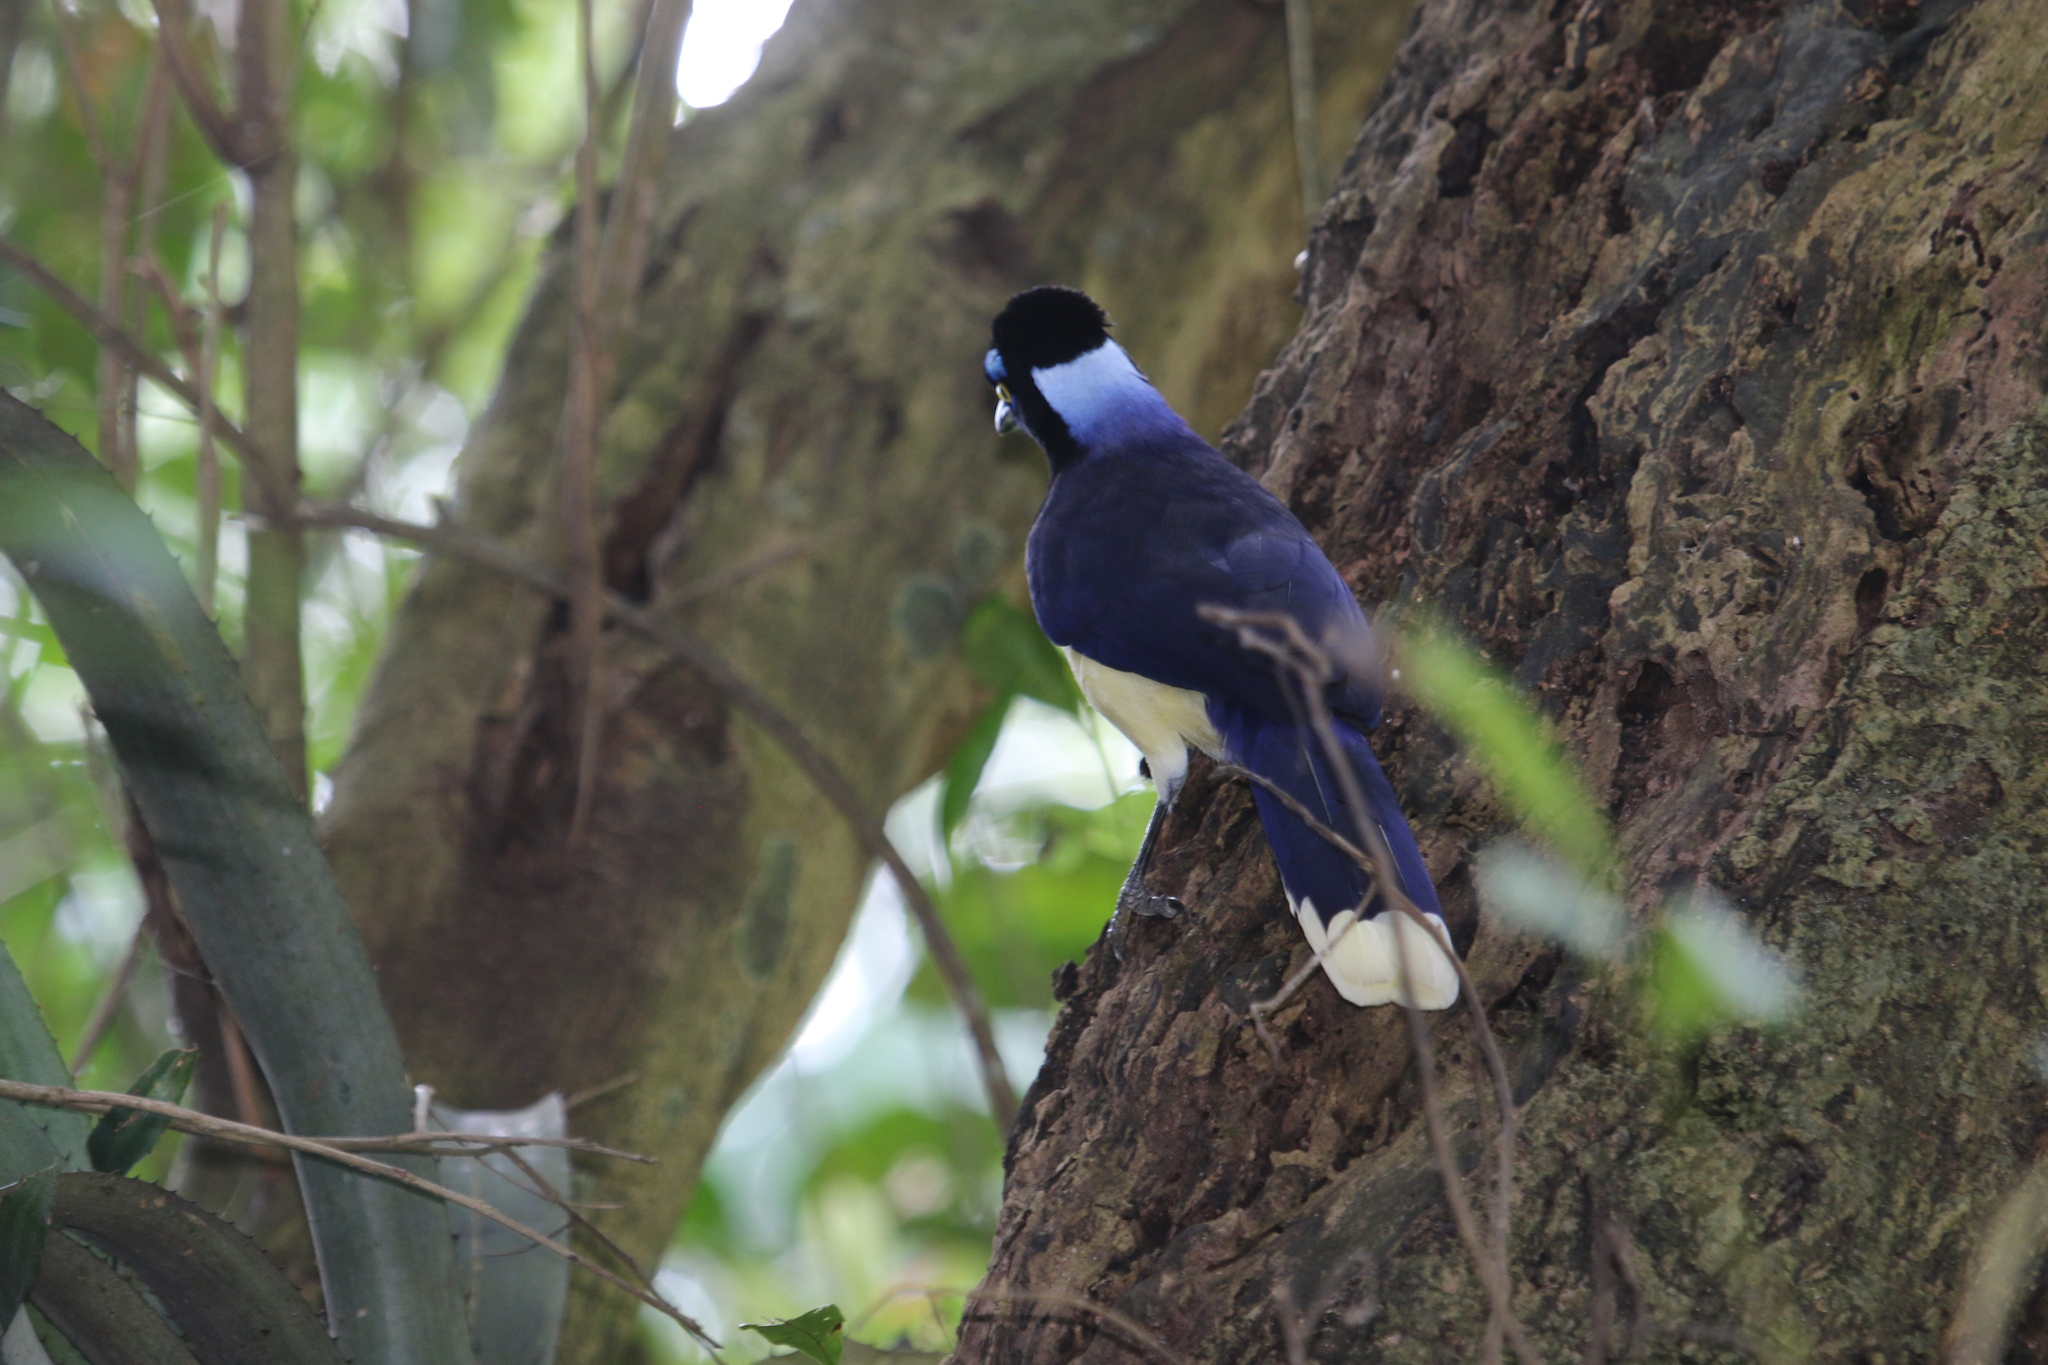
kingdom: Animalia
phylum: Chordata
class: Aves
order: Passeriformes
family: Corvidae
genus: Cyanocorax
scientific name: Cyanocorax chrysops
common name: Plush-crested jay
